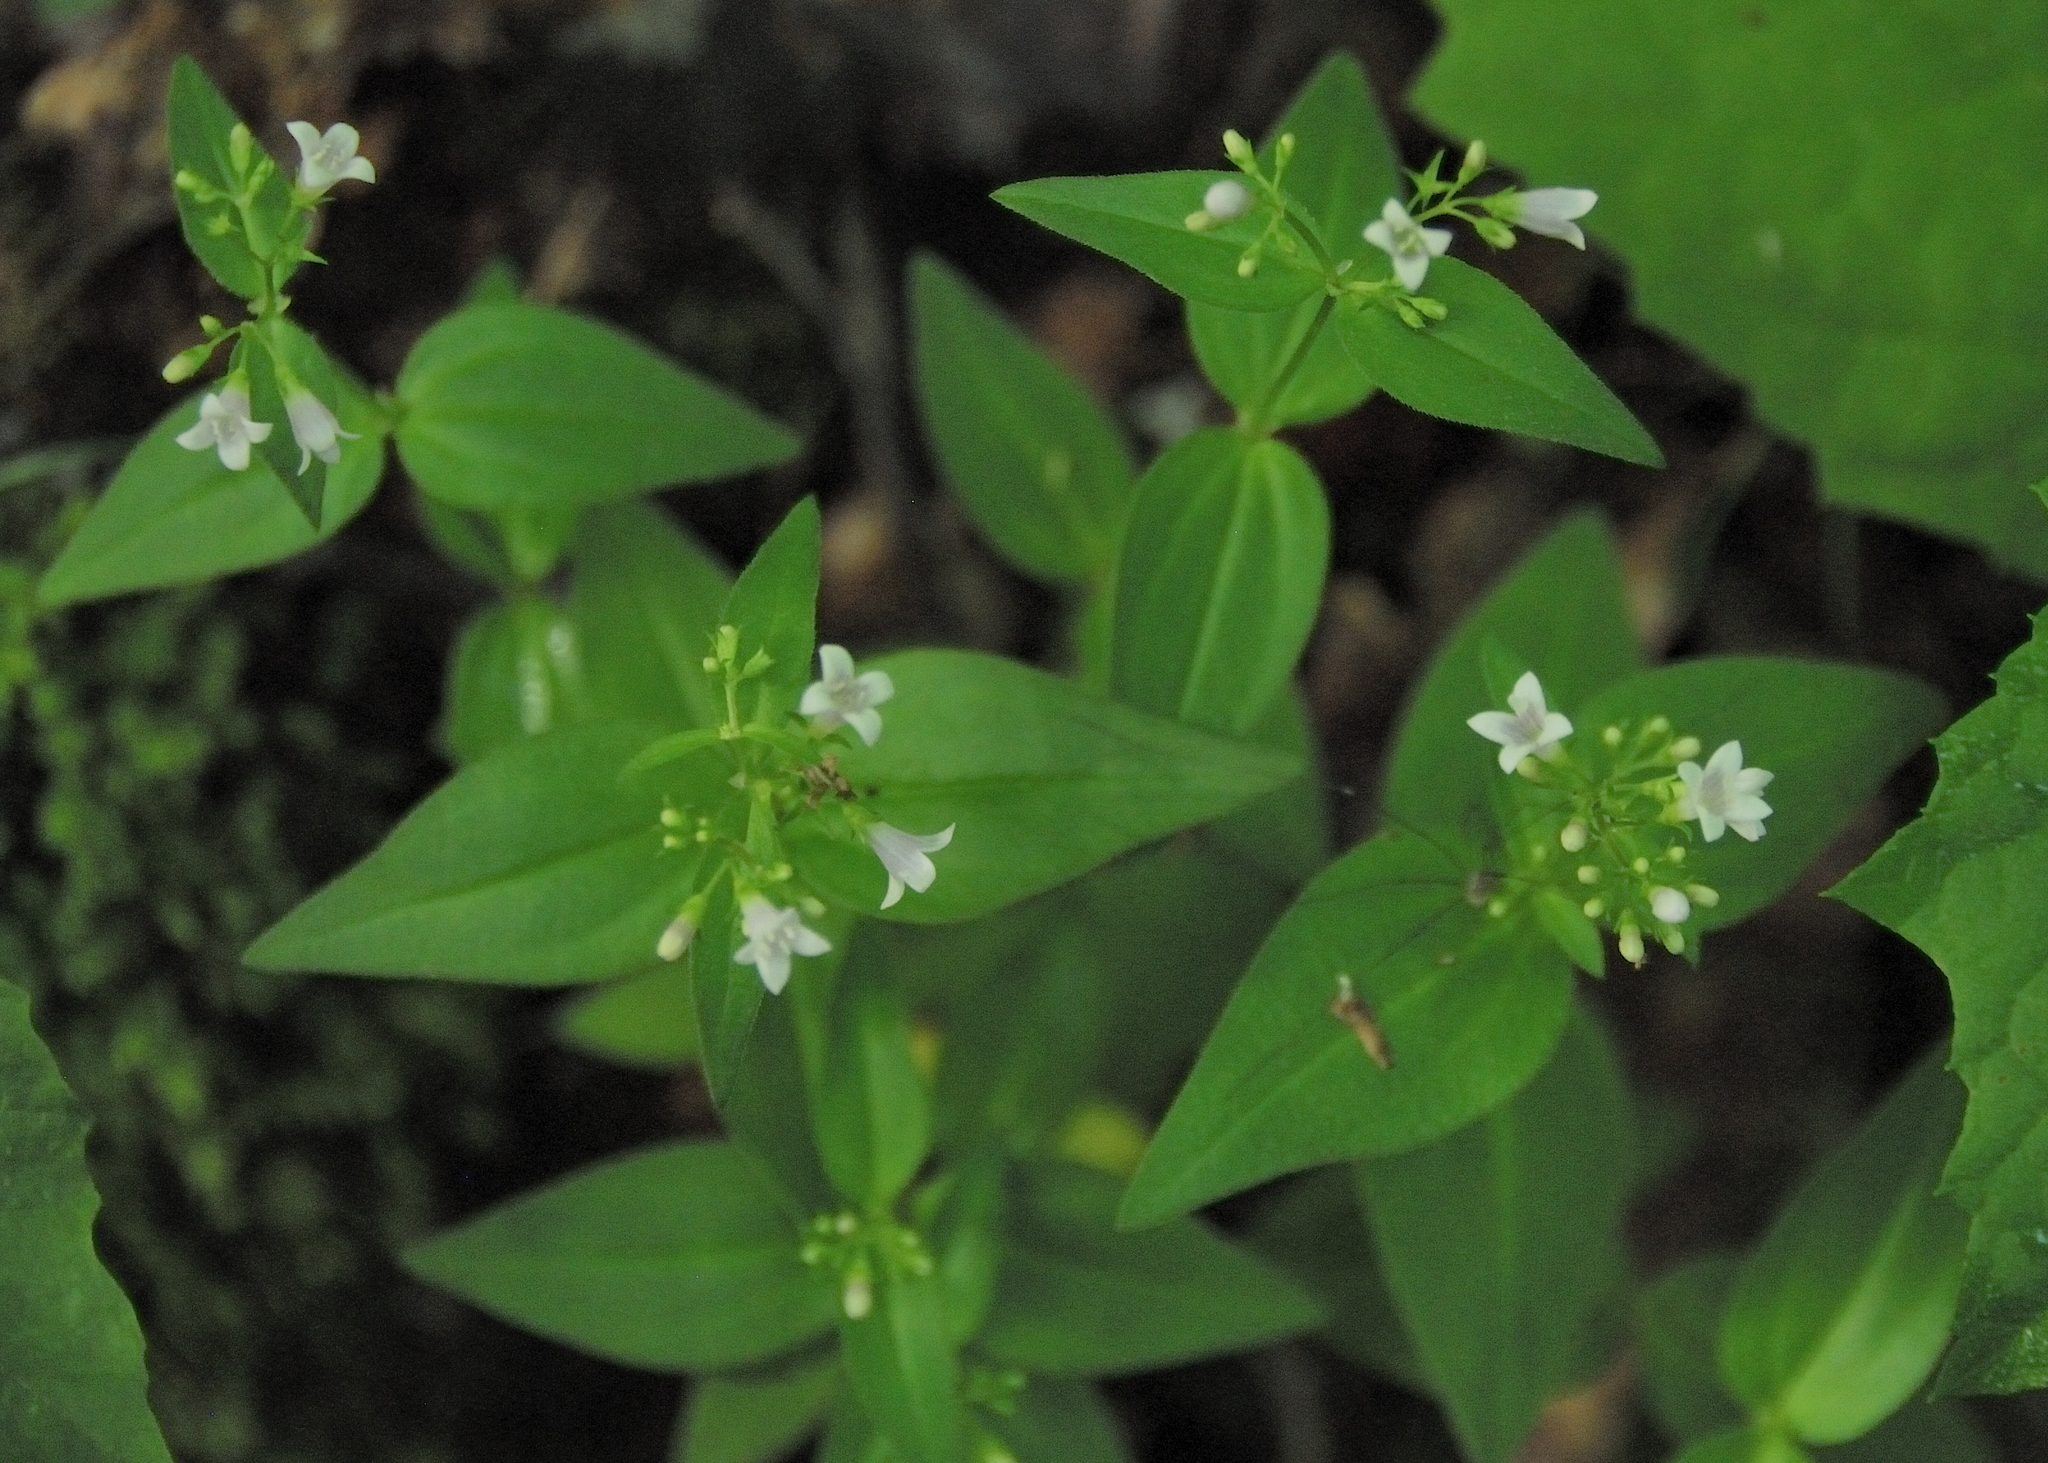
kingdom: Plantae
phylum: Tracheophyta
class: Magnoliopsida
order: Gentianales
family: Rubiaceae
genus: Houstonia
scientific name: Houstonia purpurea
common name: Summer bluet
